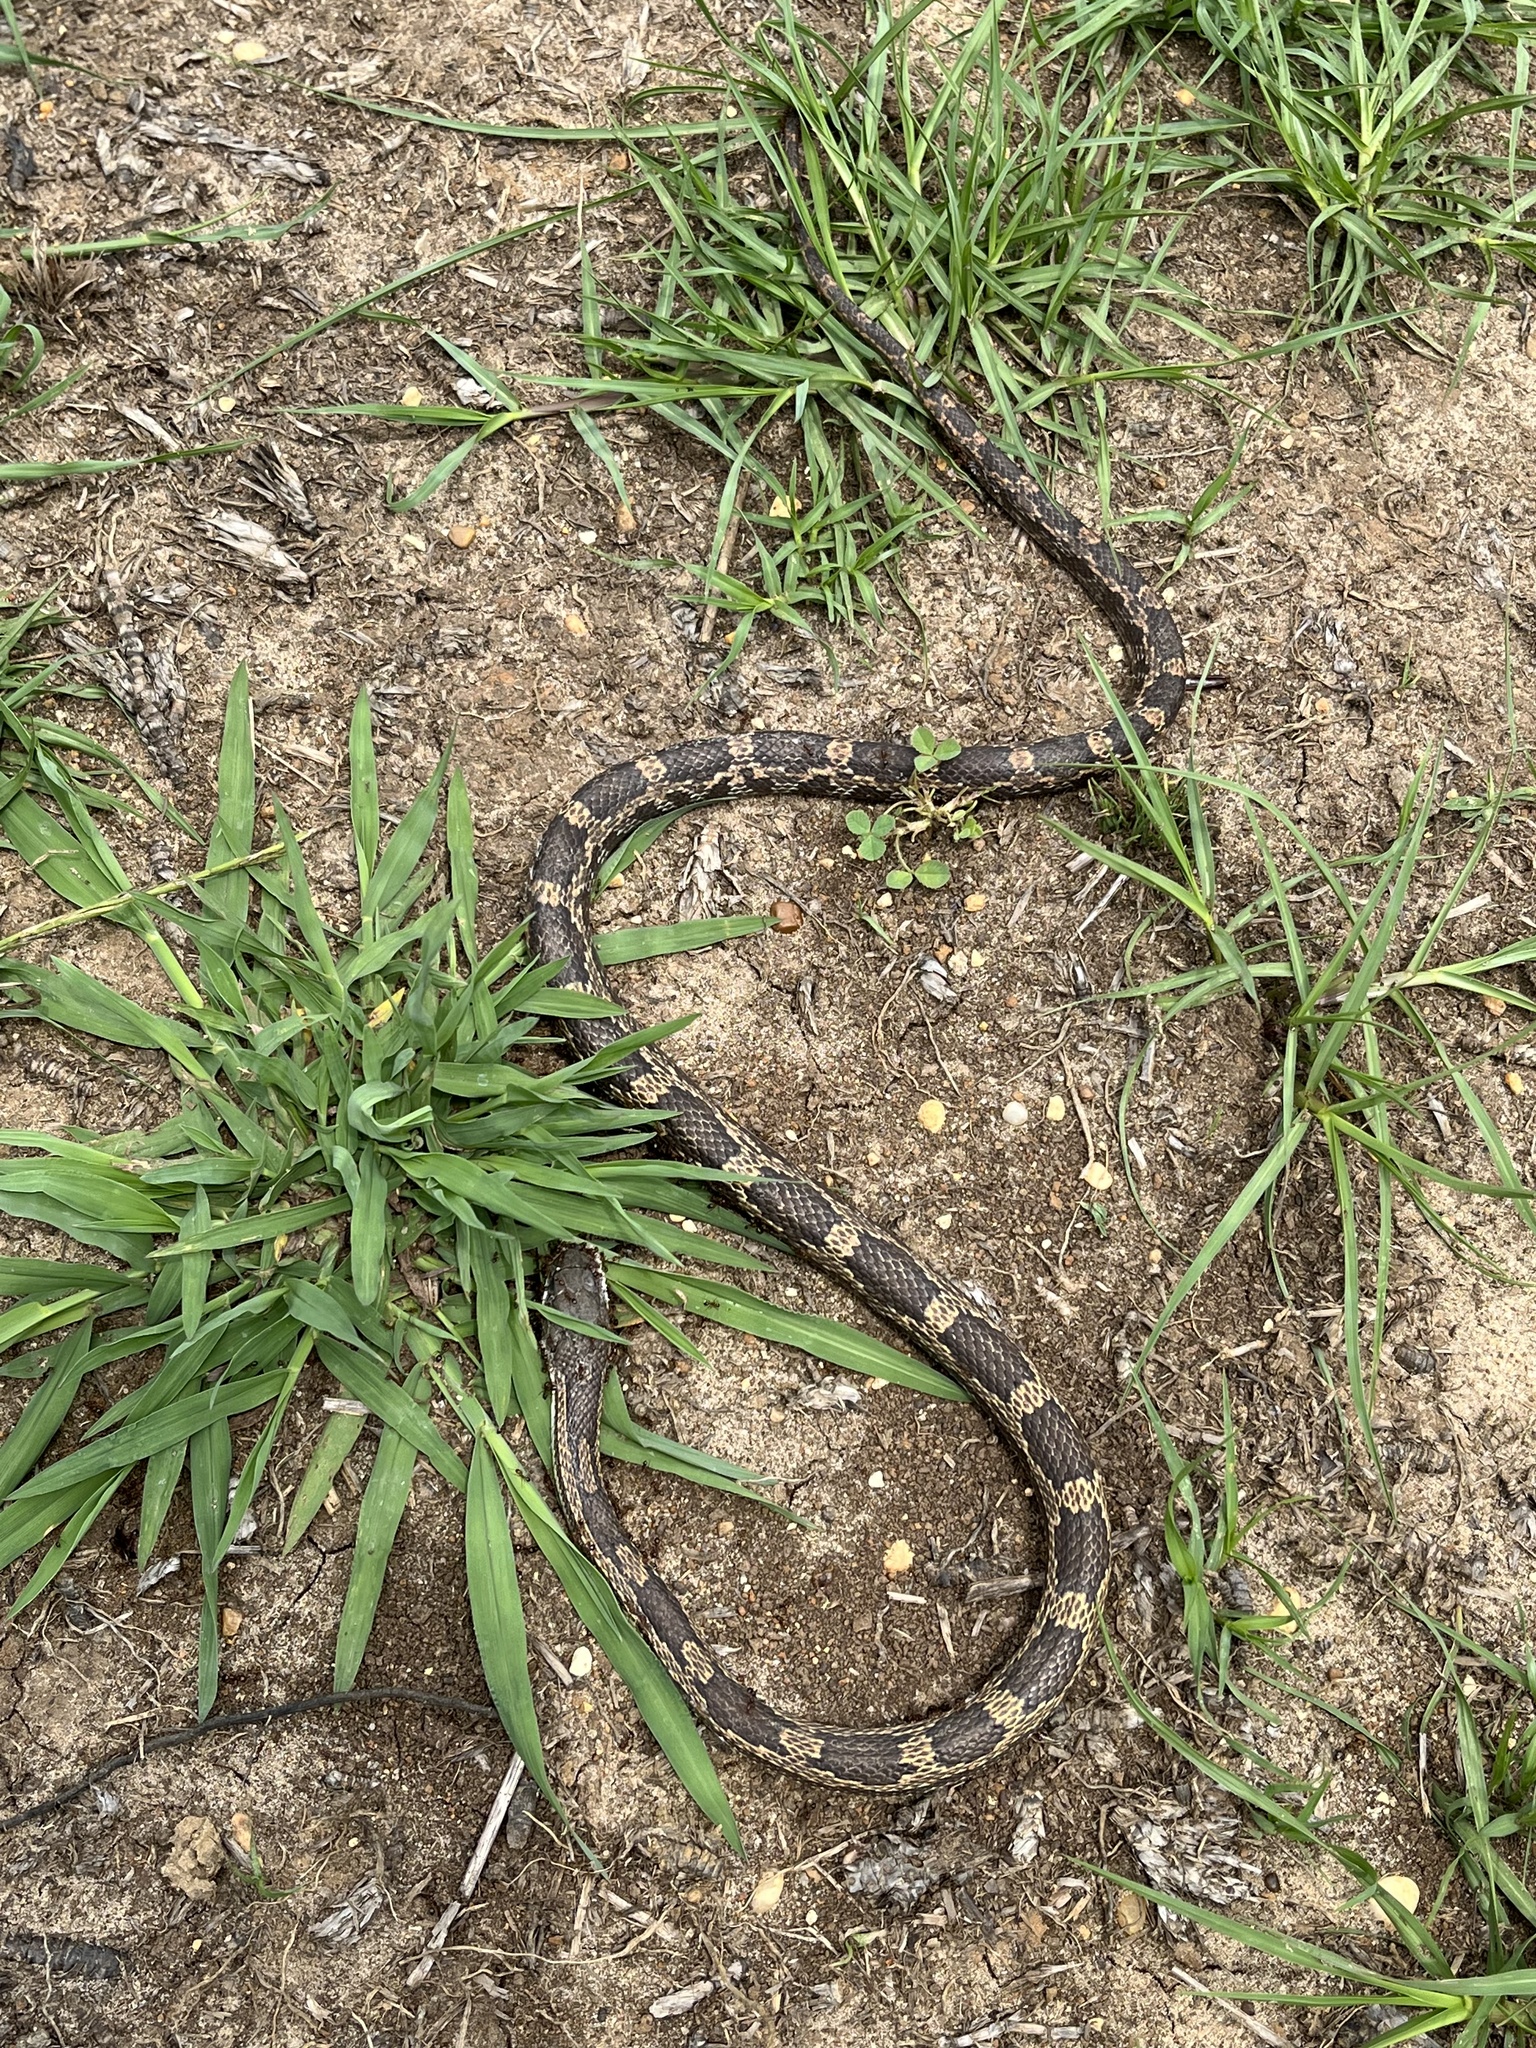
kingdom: Animalia
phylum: Chordata
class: Squamata
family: Colubridae
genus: Pantherophis
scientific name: Pantherophis spiloides
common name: Gray rat snake
